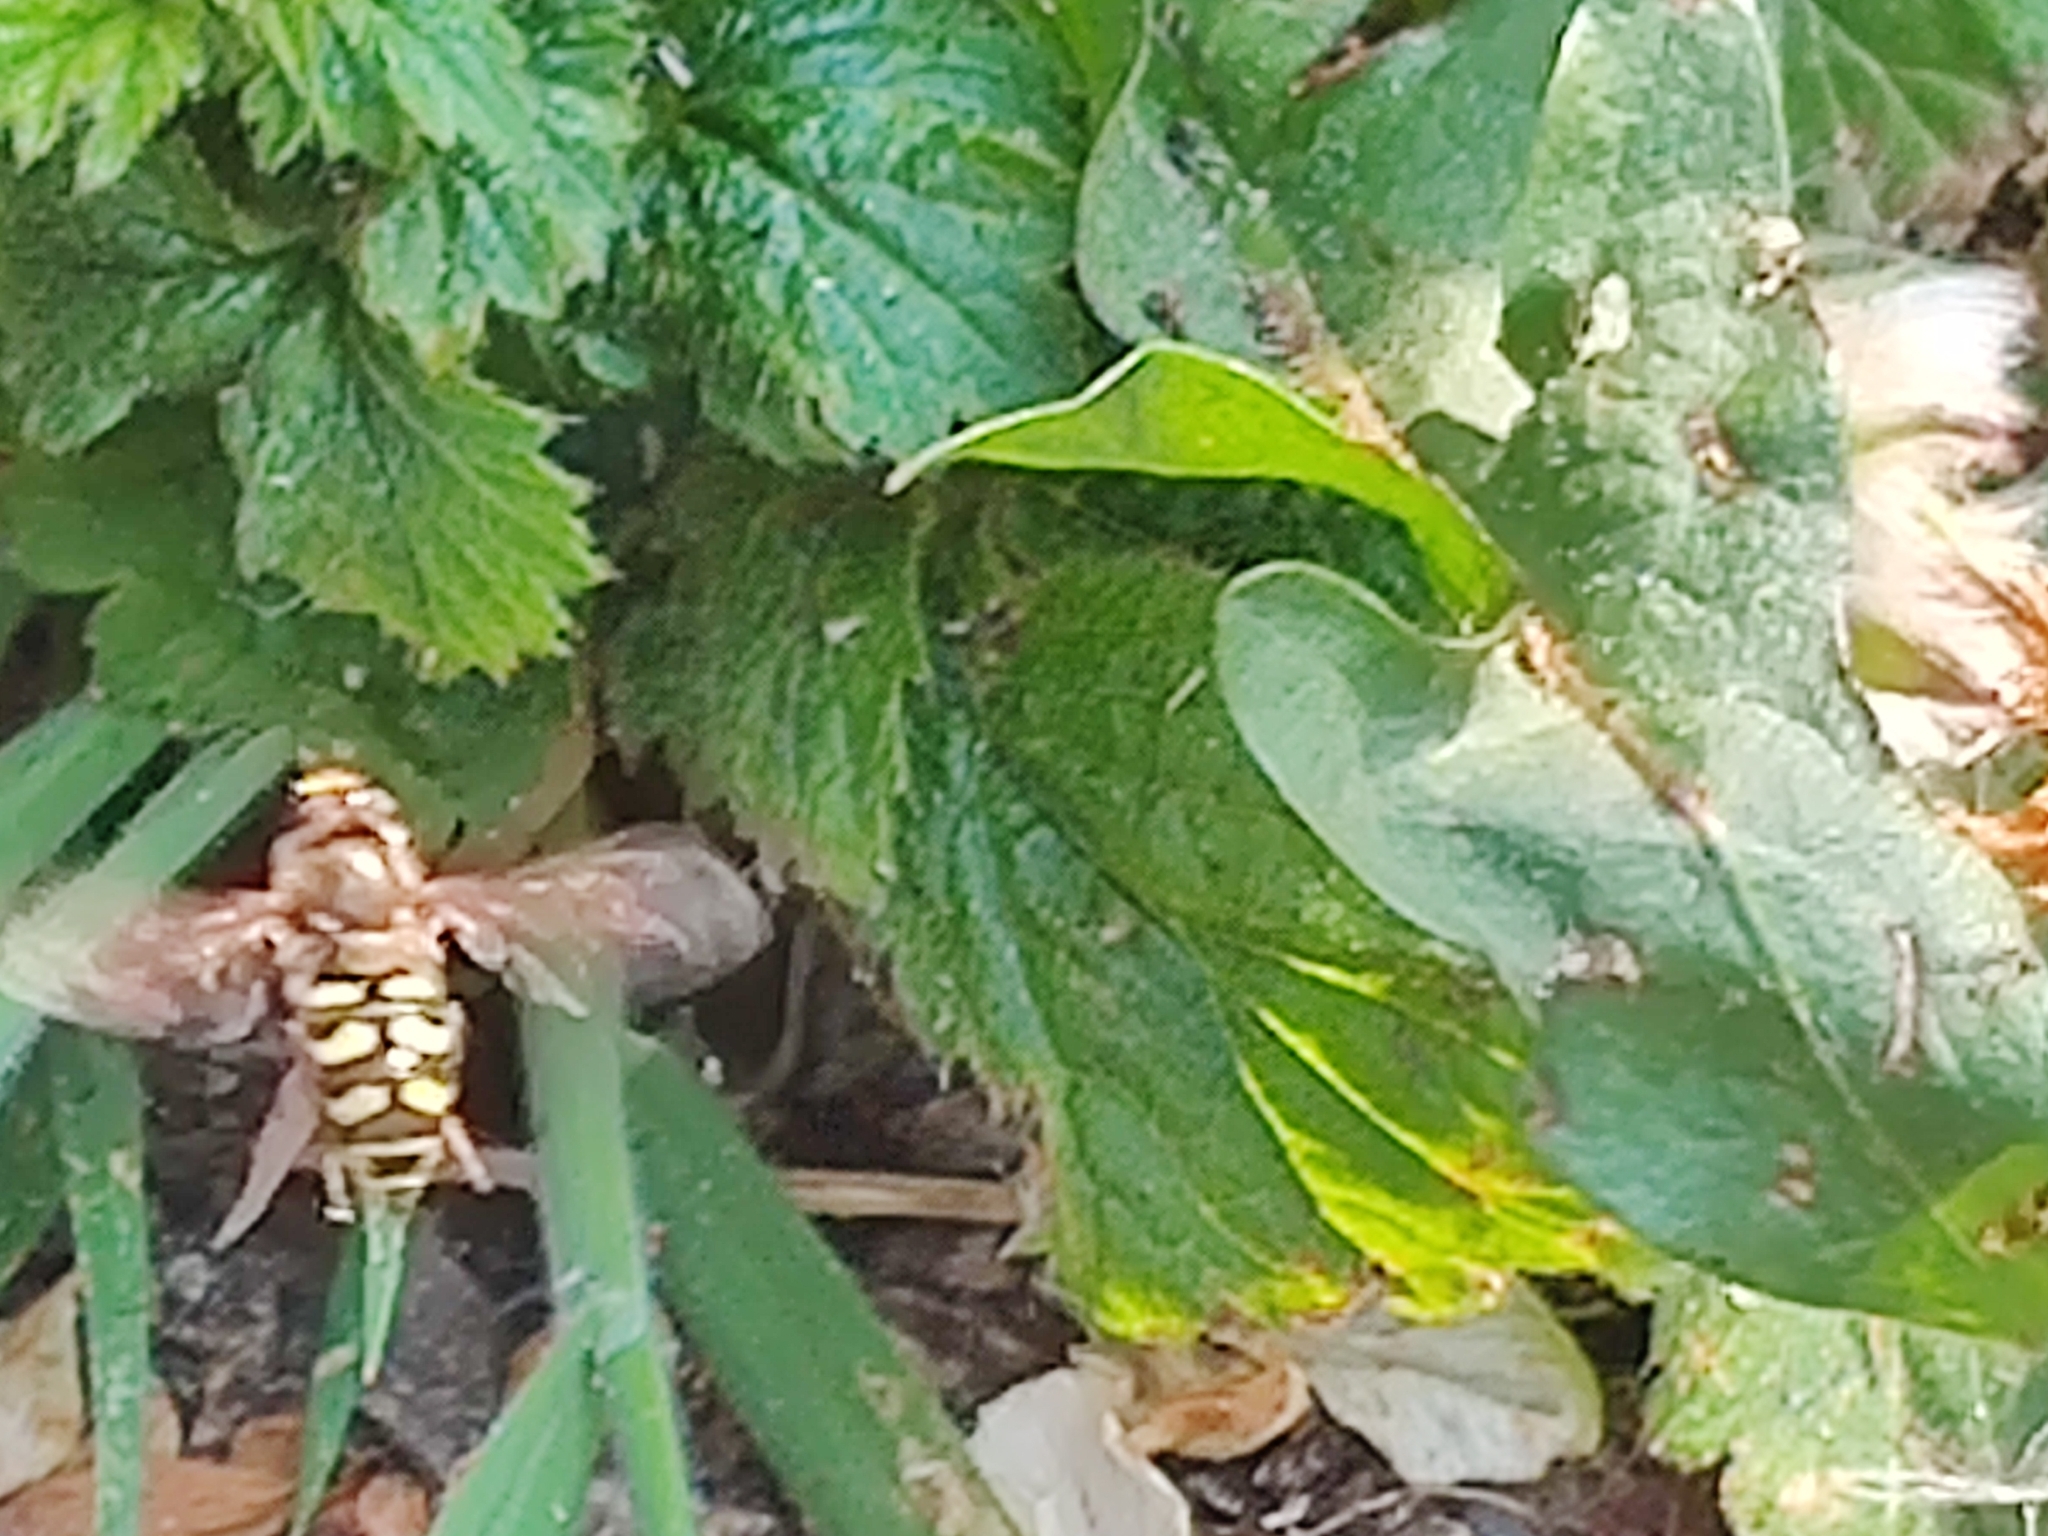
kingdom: Animalia
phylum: Arthropoda
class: Insecta
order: Diptera
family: Syrphidae
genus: Eupeodes
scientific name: Eupeodes
